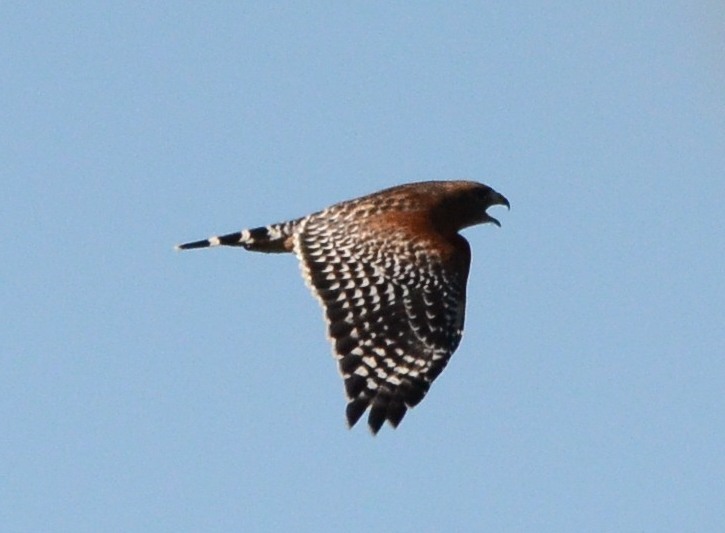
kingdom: Animalia
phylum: Chordata
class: Aves
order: Accipitriformes
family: Accipitridae
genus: Buteo
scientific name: Buteo lineatus
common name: Red-shouldered hawk
